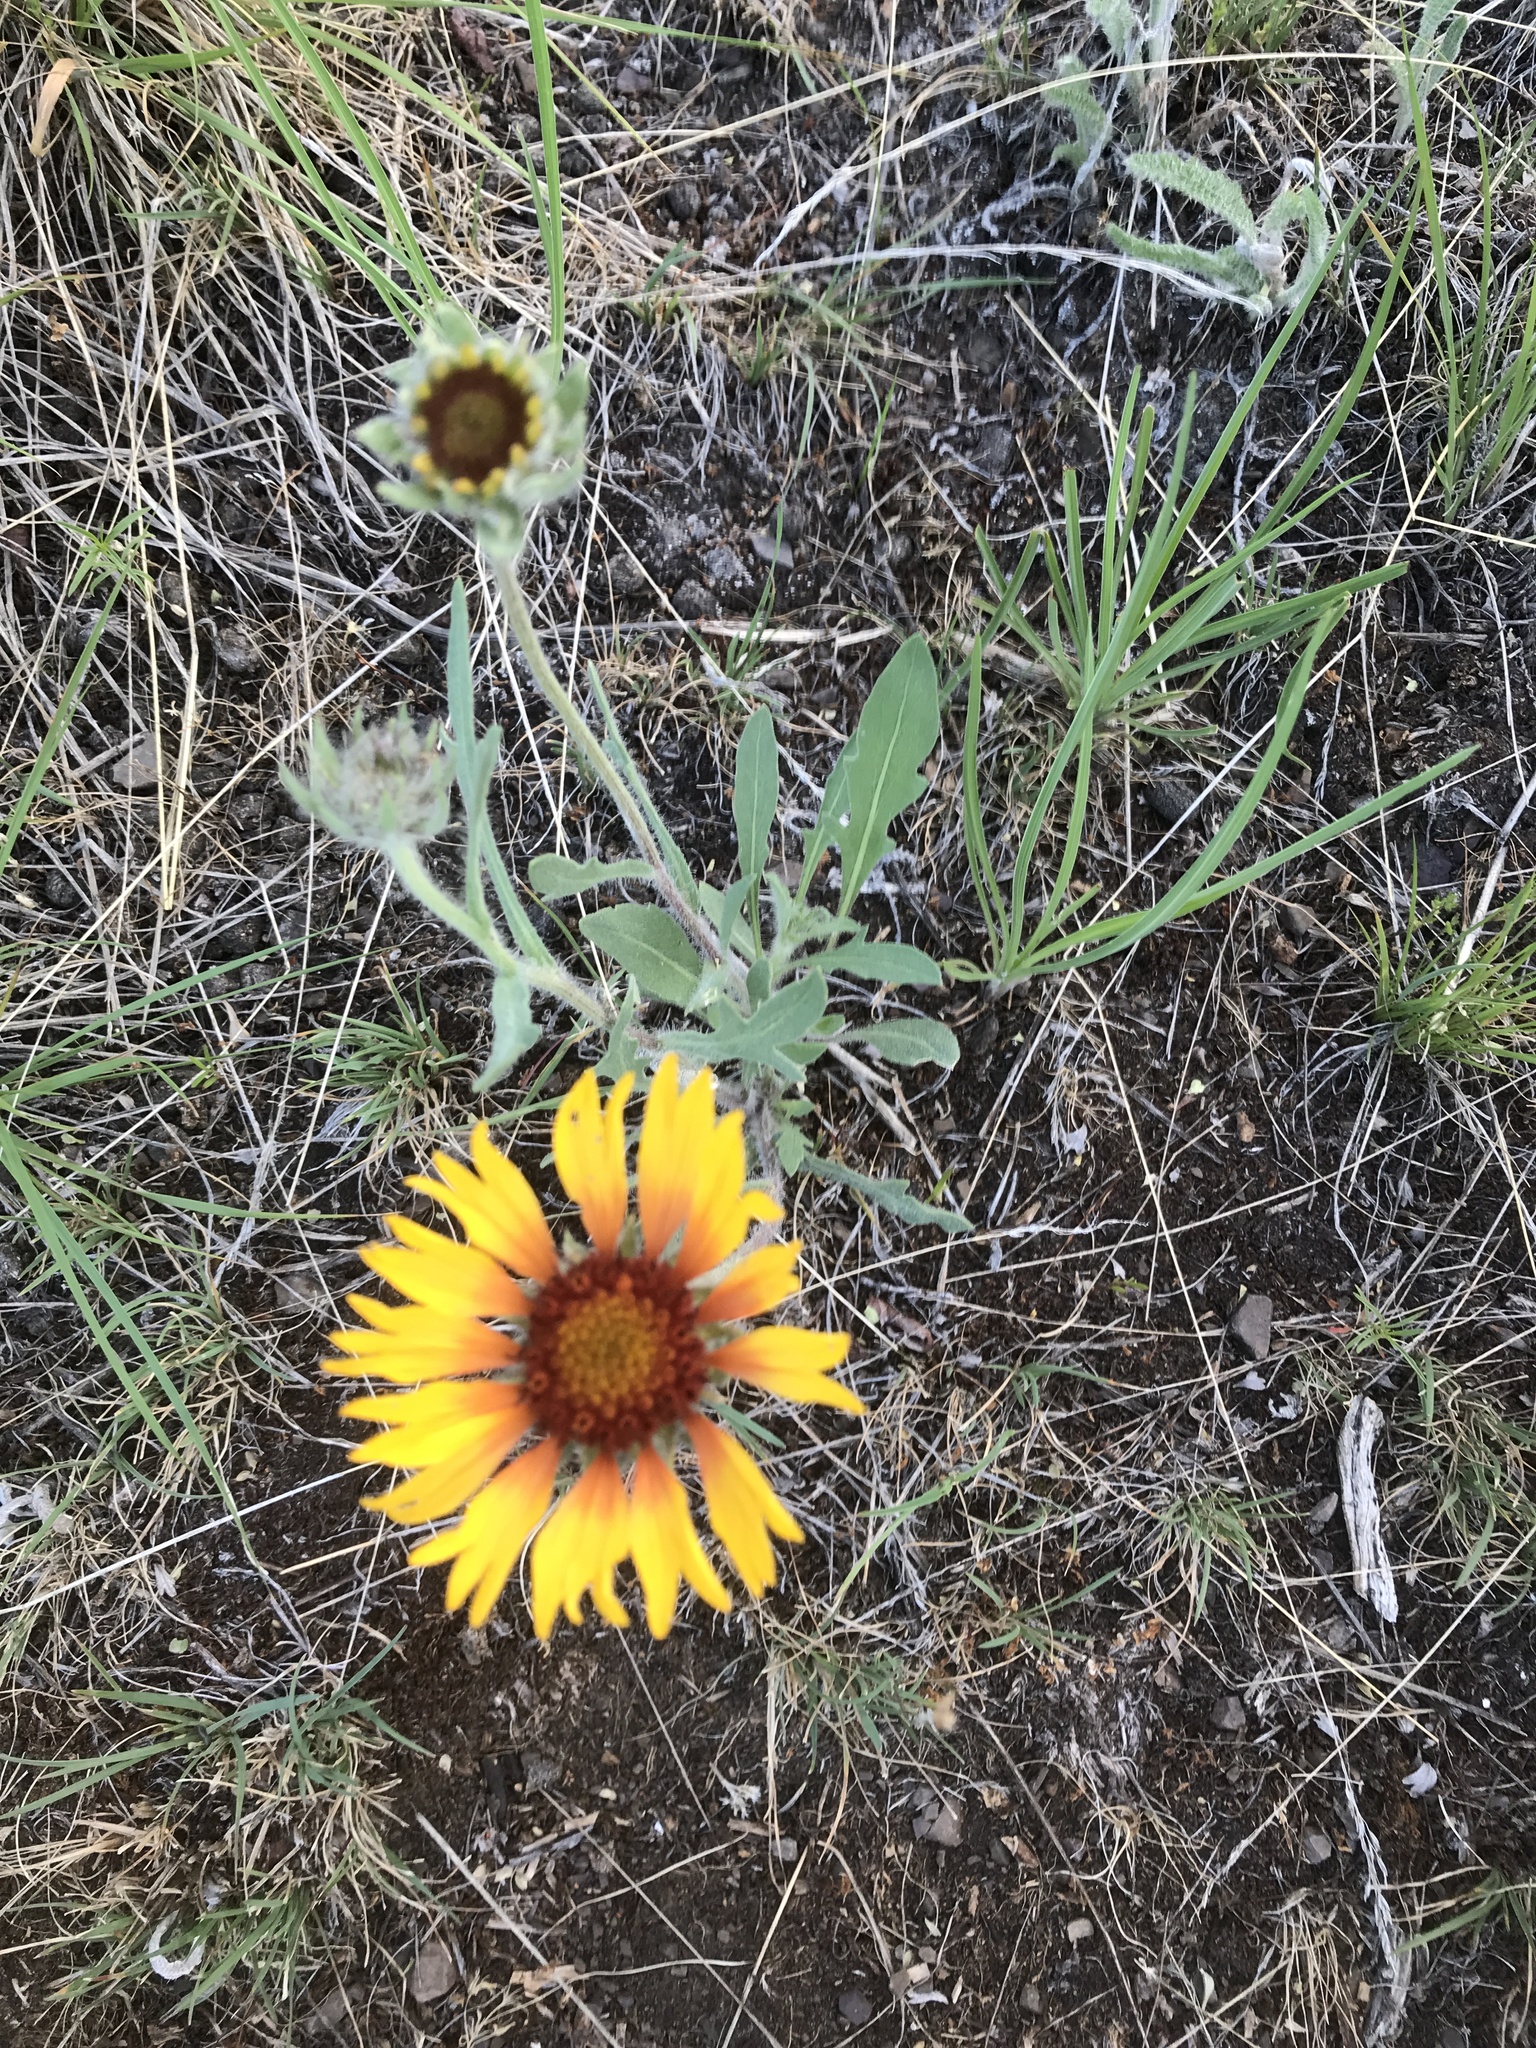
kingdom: Plantae
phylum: Tracheophyta
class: Magnoliopsida
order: Asterales
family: Asteraceae
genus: Gaillardia
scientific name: Gaillardia aristata
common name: Blanket-flower
